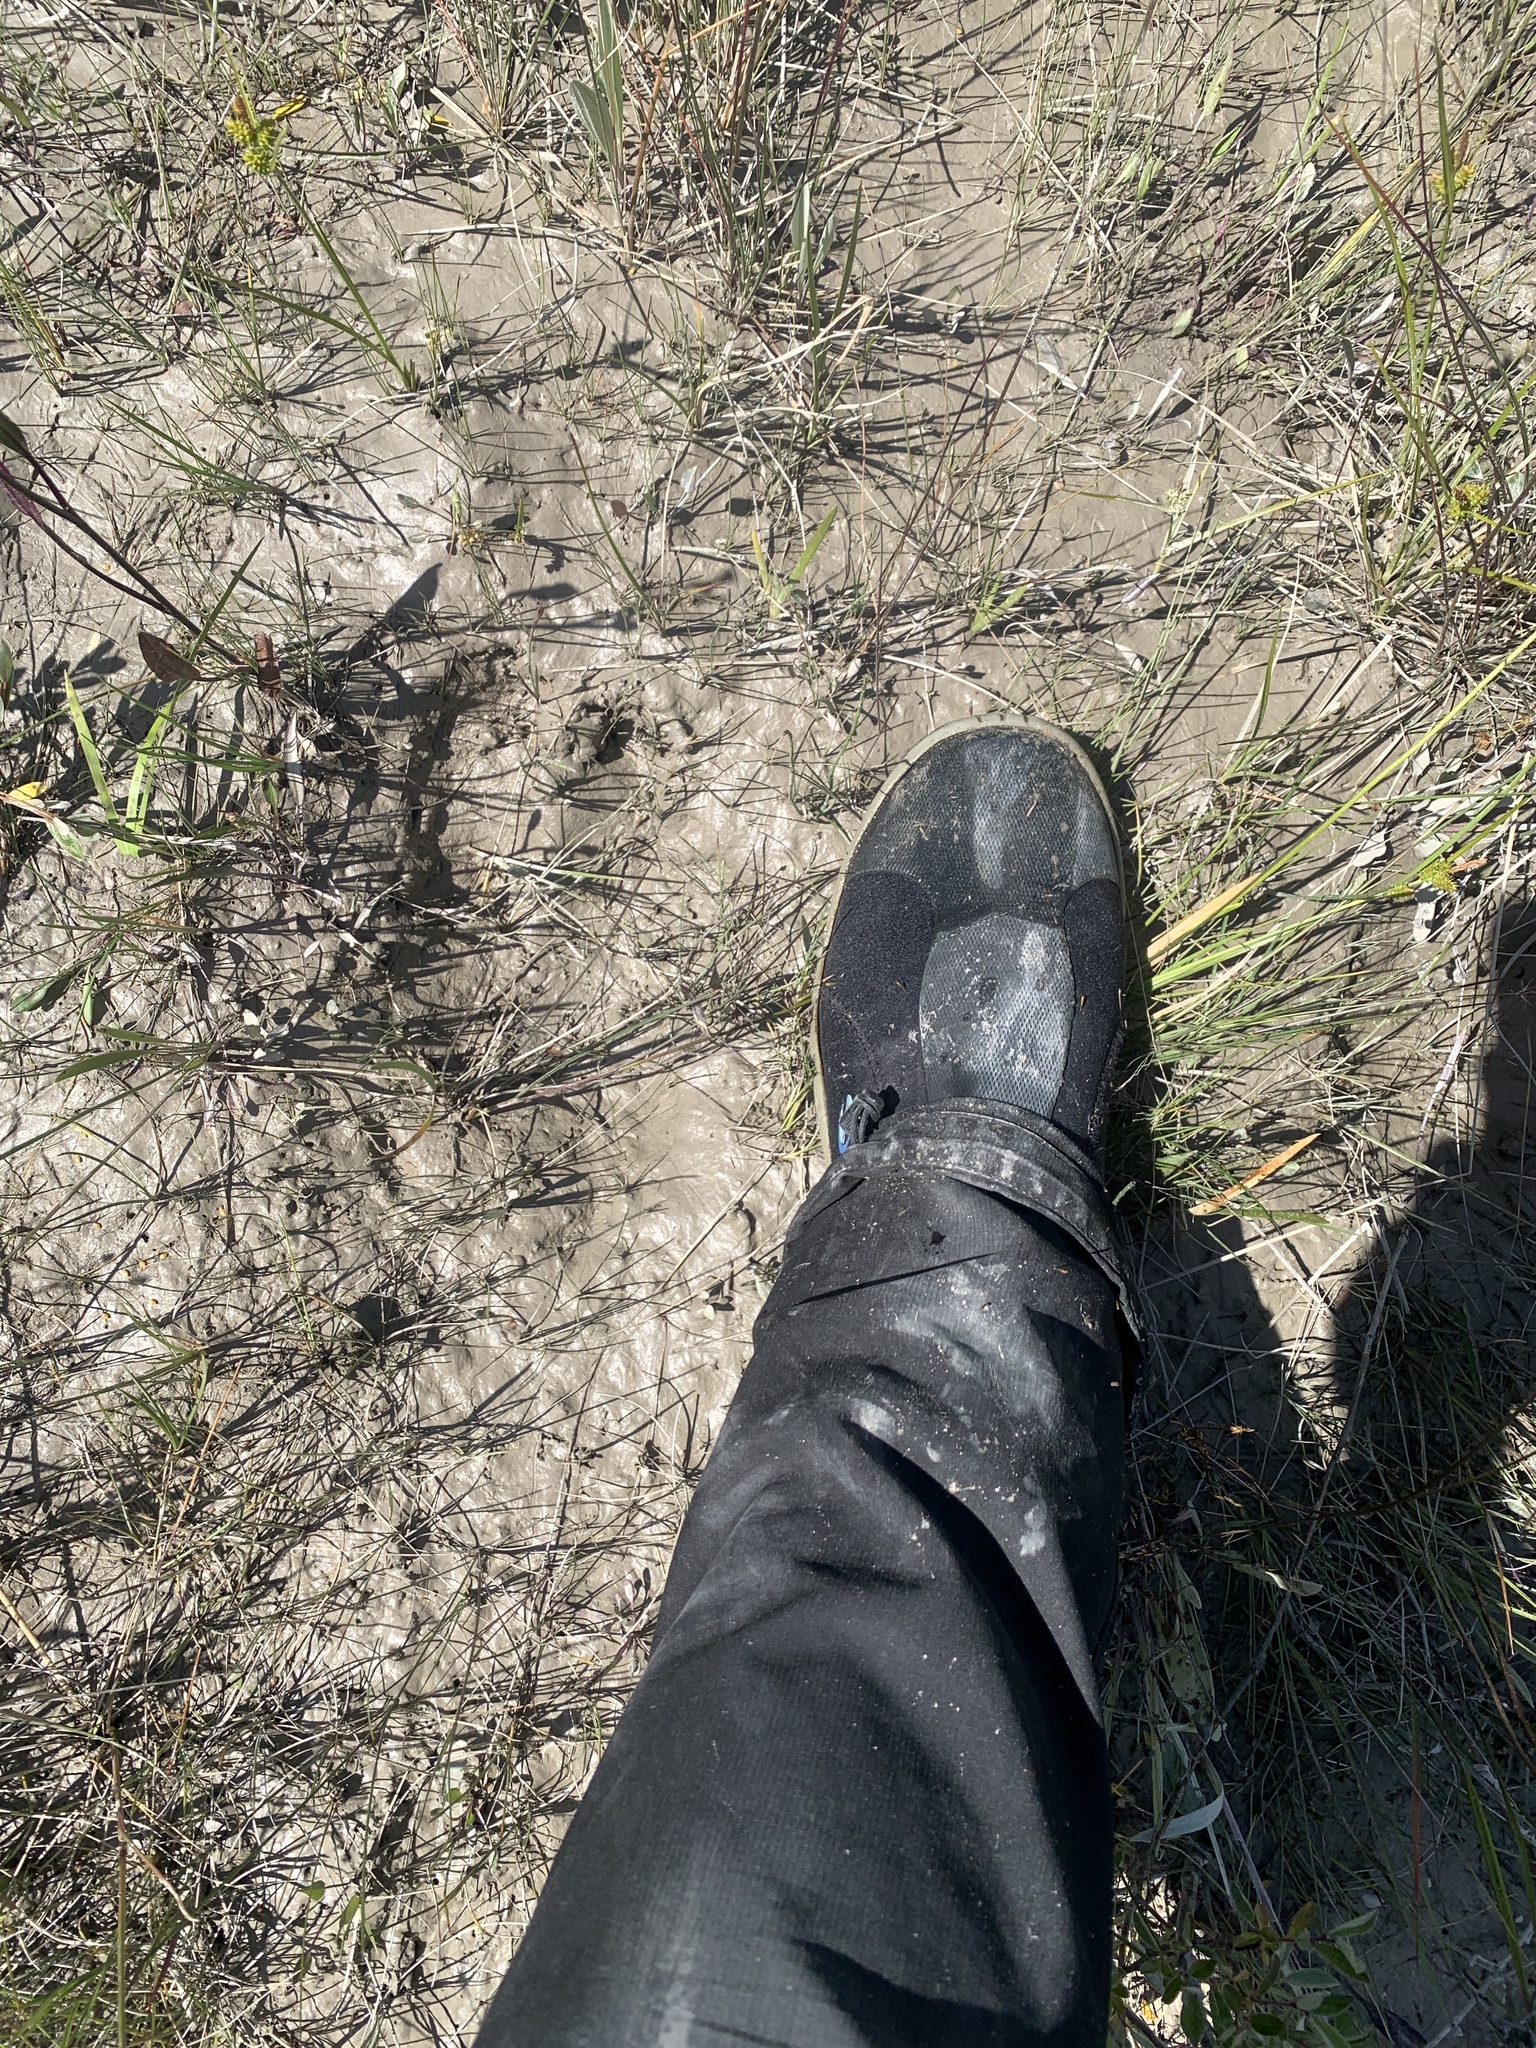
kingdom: Animalia
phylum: Chordata
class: Mammalia
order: Artiodactyla
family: Cervidae
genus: Alces
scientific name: Alces alces
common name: Moose
